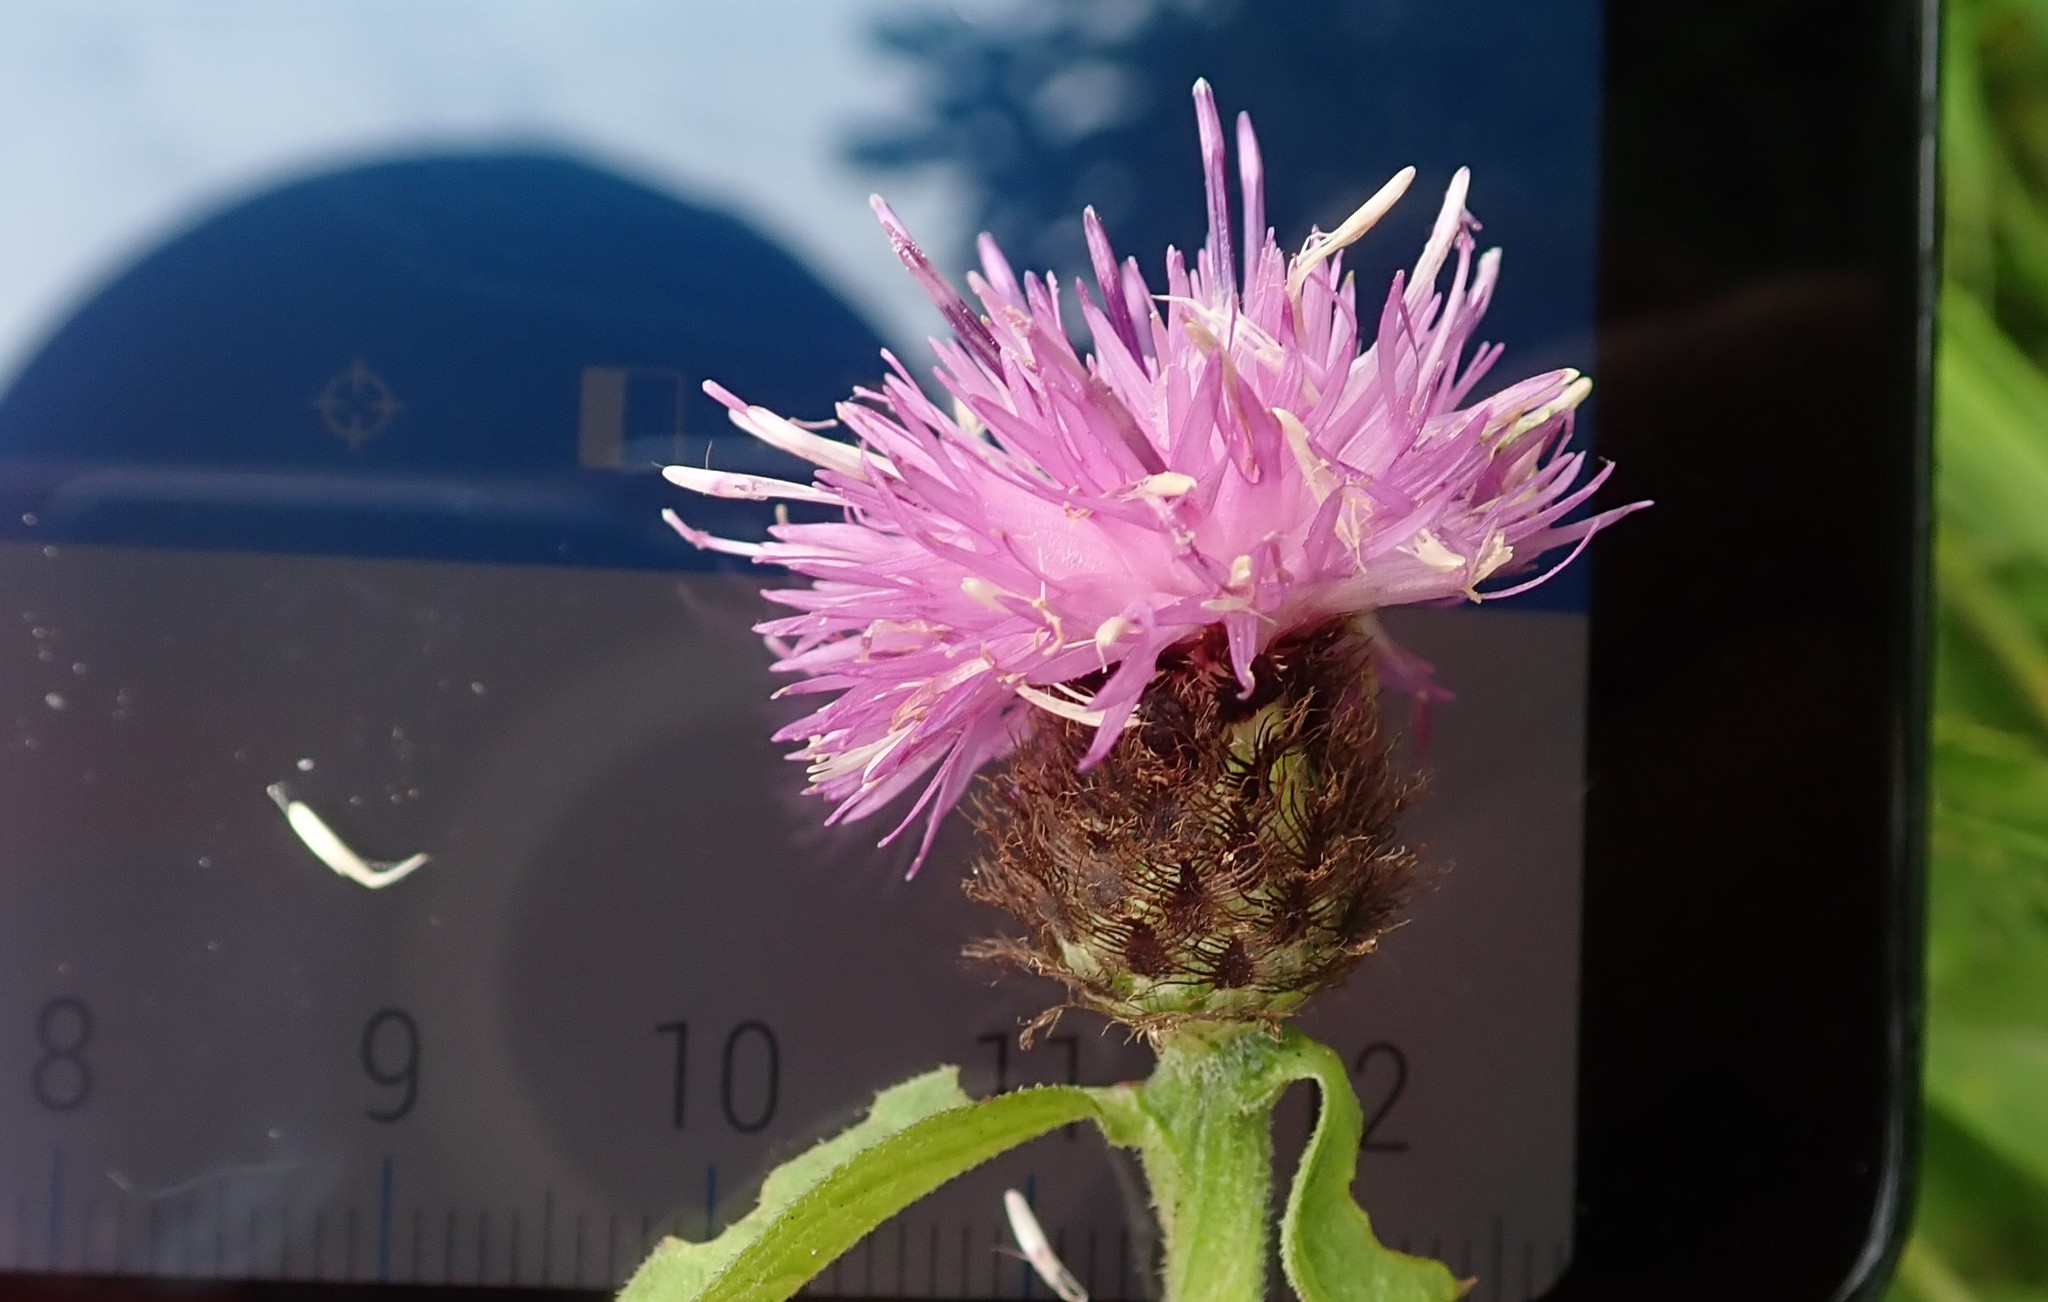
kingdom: Plantae
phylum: Tracheophyta
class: Magnoliopsida
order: Asterales
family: Asteraceae
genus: Centaurea
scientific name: Centaurea debeauxii
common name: Slender knapweed
